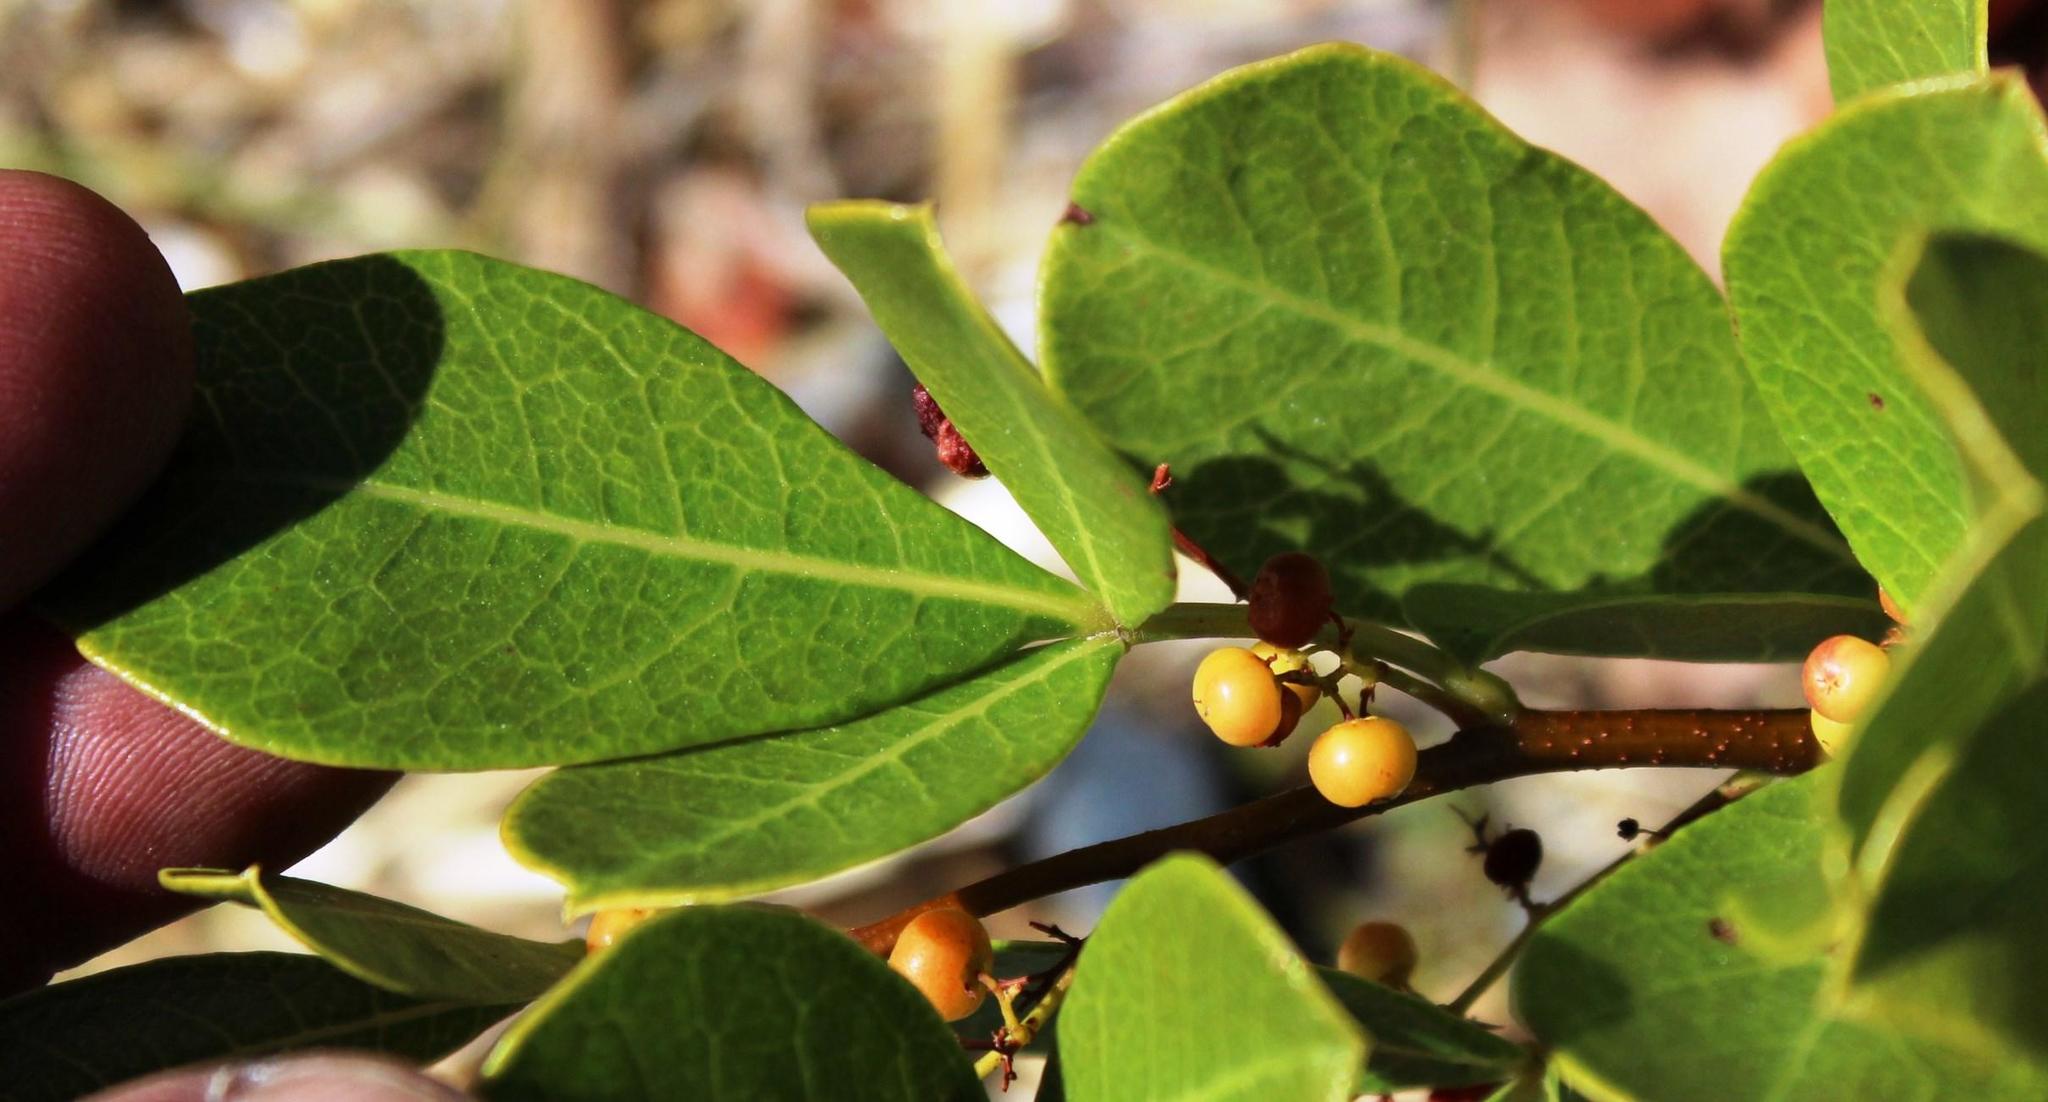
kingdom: Plantae
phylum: Tracheophyta
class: Magnoliopsida
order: Sapindales
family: Anacardiaceae
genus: Searsia
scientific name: Searsia laevigata
